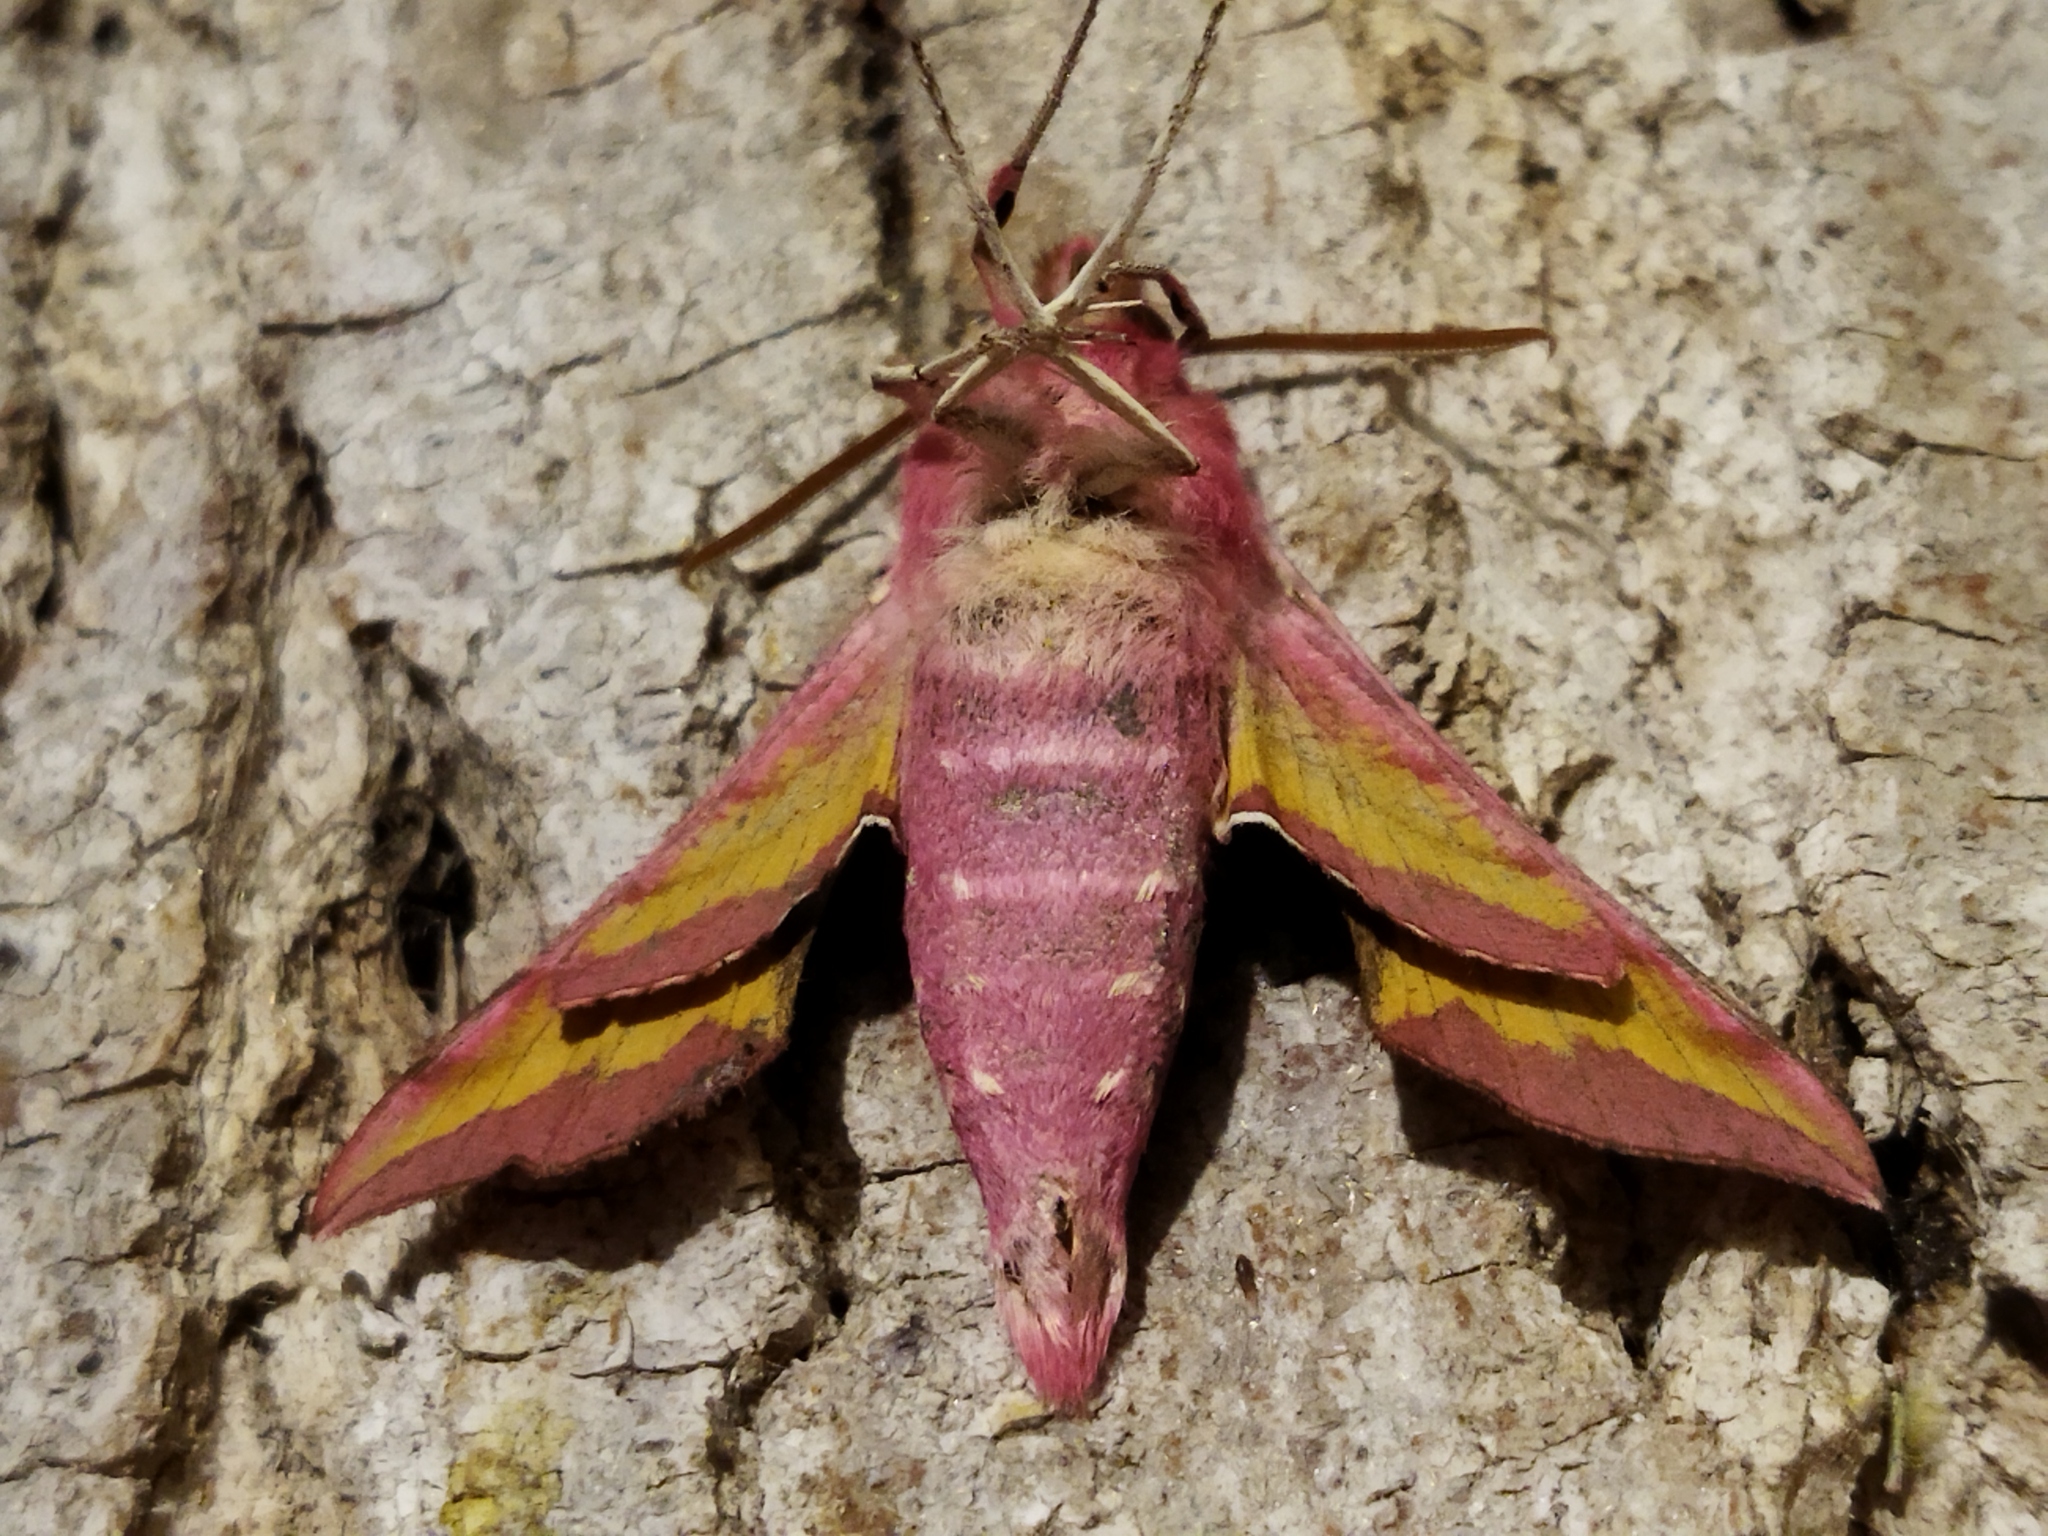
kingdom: Animalia
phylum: Arthropoda
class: Insecta
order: Lepidoptera
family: Sphingidae
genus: Deilephila
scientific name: Deilephila porcellus
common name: Small elephant hawk-moth
